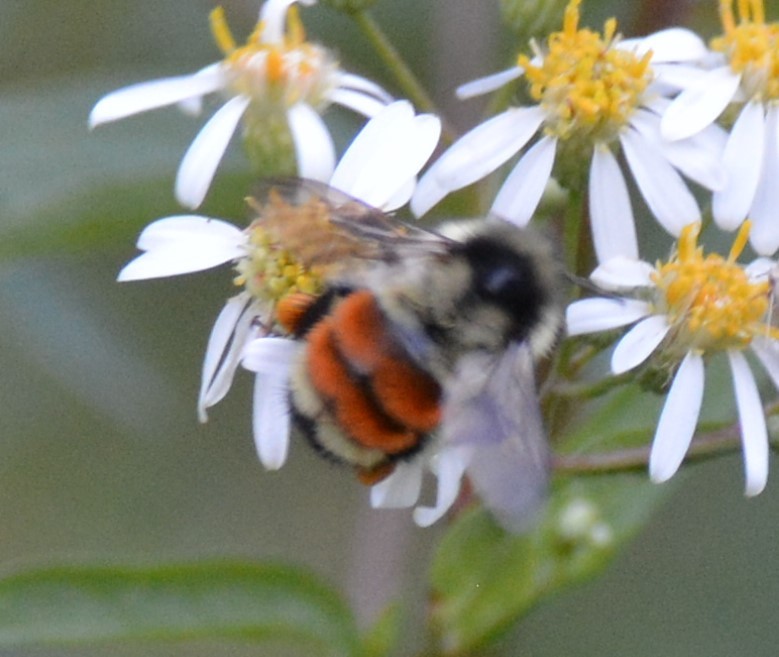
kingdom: Animalia
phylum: Arthropoda
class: Insecta
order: Hymenoptera
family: Apidae
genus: Bombus
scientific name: Bombus ternarius
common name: Tri-colored bumble bee
